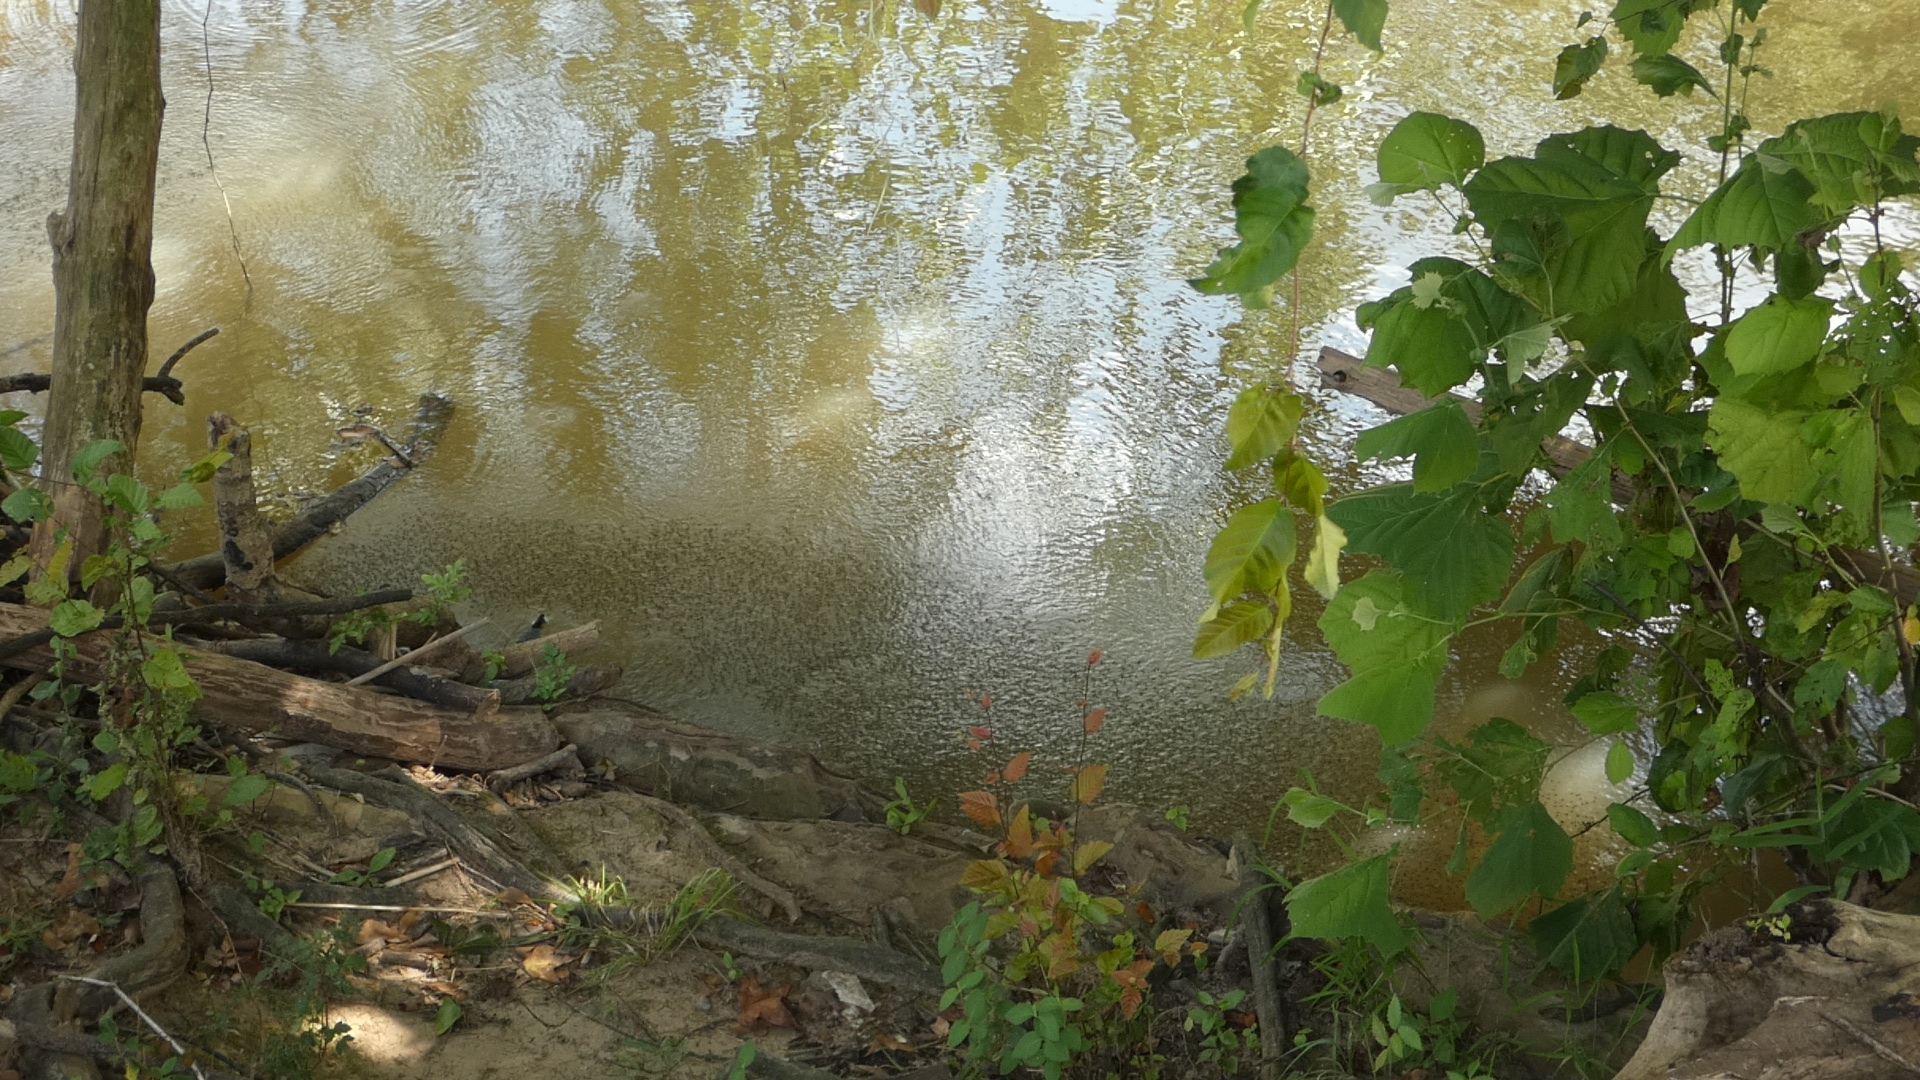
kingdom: Animalia
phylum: Arthropoda
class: Insecta
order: Hemiptera
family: Gerridae
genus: Metrobates
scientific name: Metrobates
